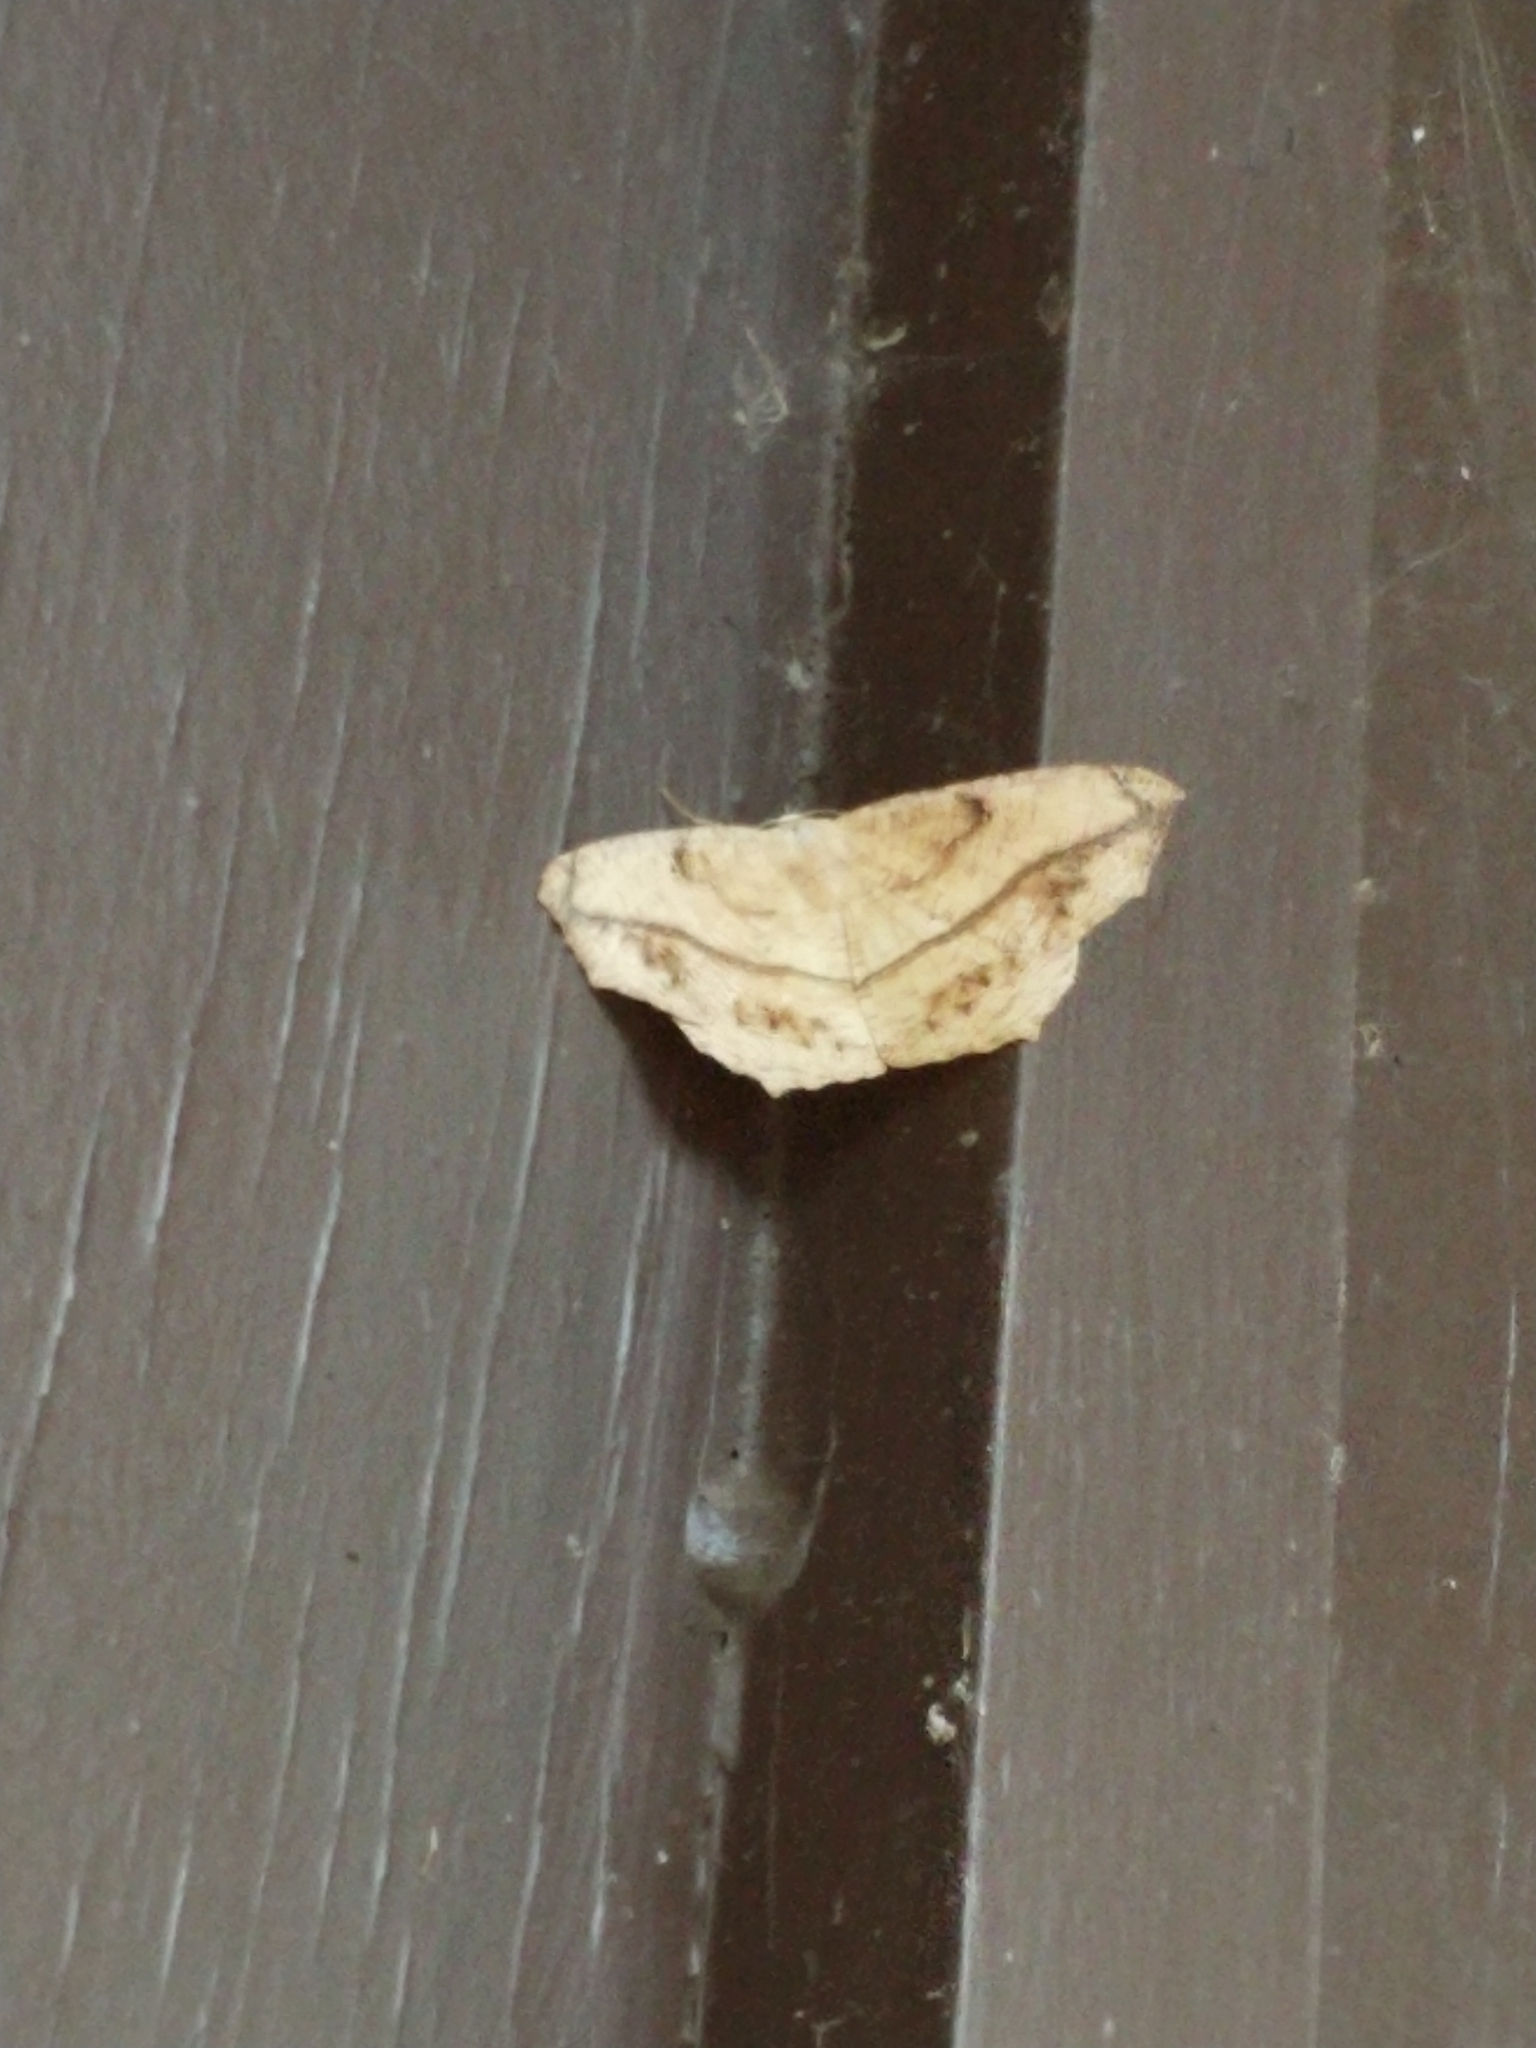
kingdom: Animalia
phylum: Arthropoda
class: Insecta
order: Lepidoptera
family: Geometridae
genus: Prochoerodes
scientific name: Prochoerodes lineola
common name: Large maple spanworm
